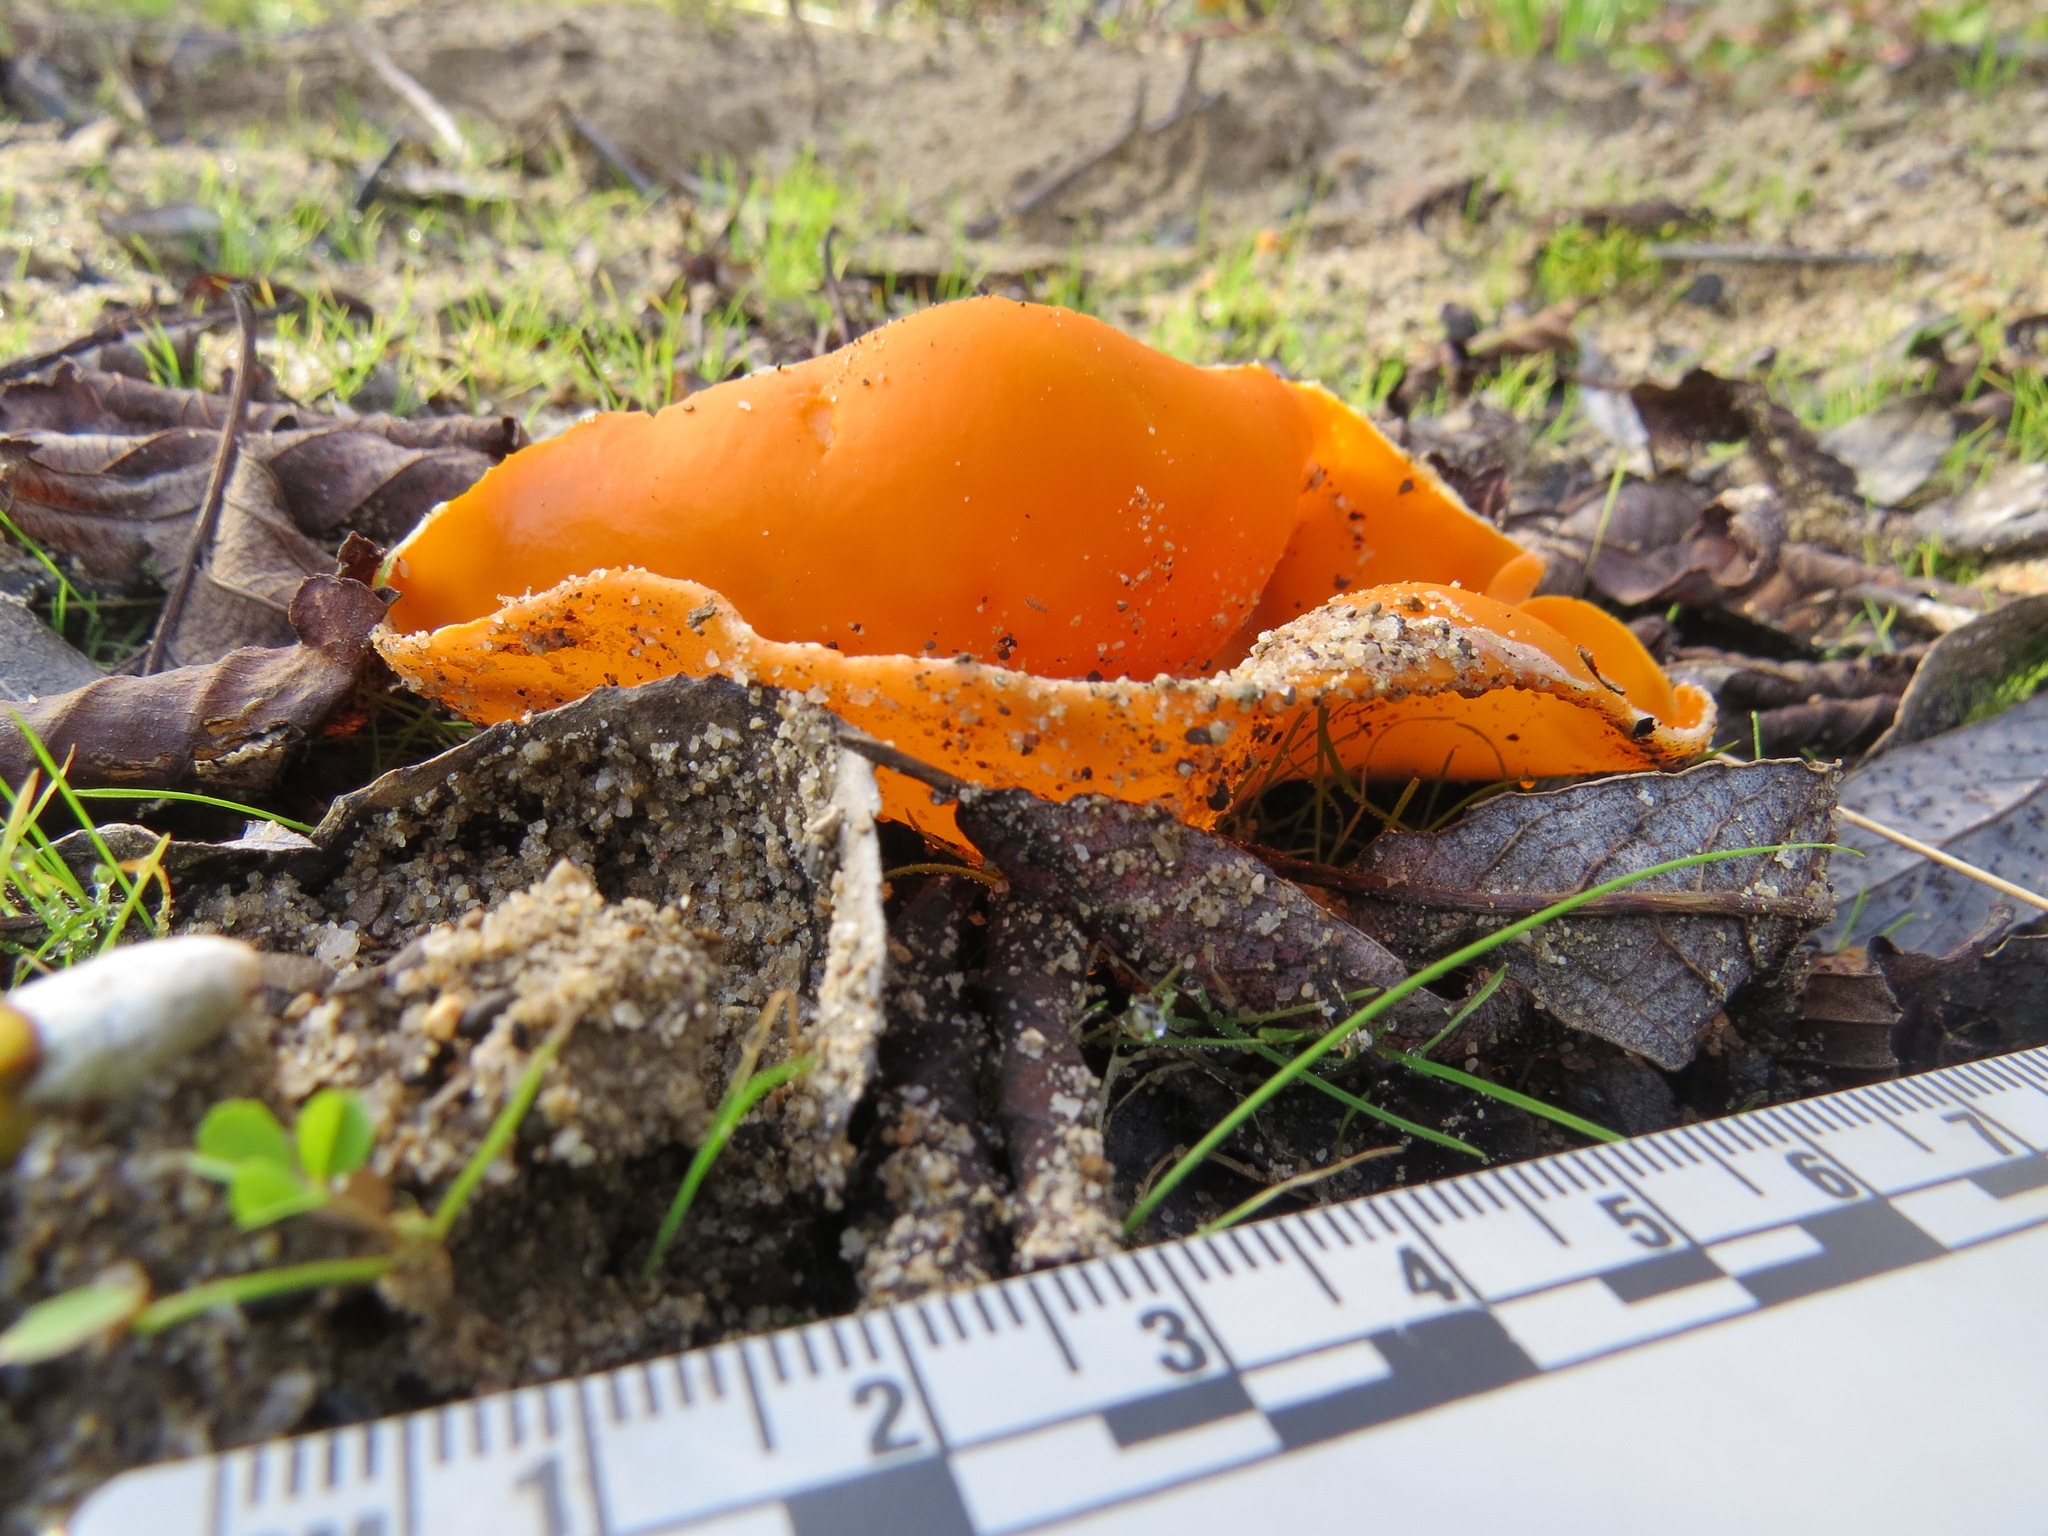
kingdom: Fungi
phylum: Ascomycota
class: Pezizomycetes
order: Pezizales
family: Pyronemataceae
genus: Aleuria
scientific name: Aleuria aurantia
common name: Orange peel fungus
